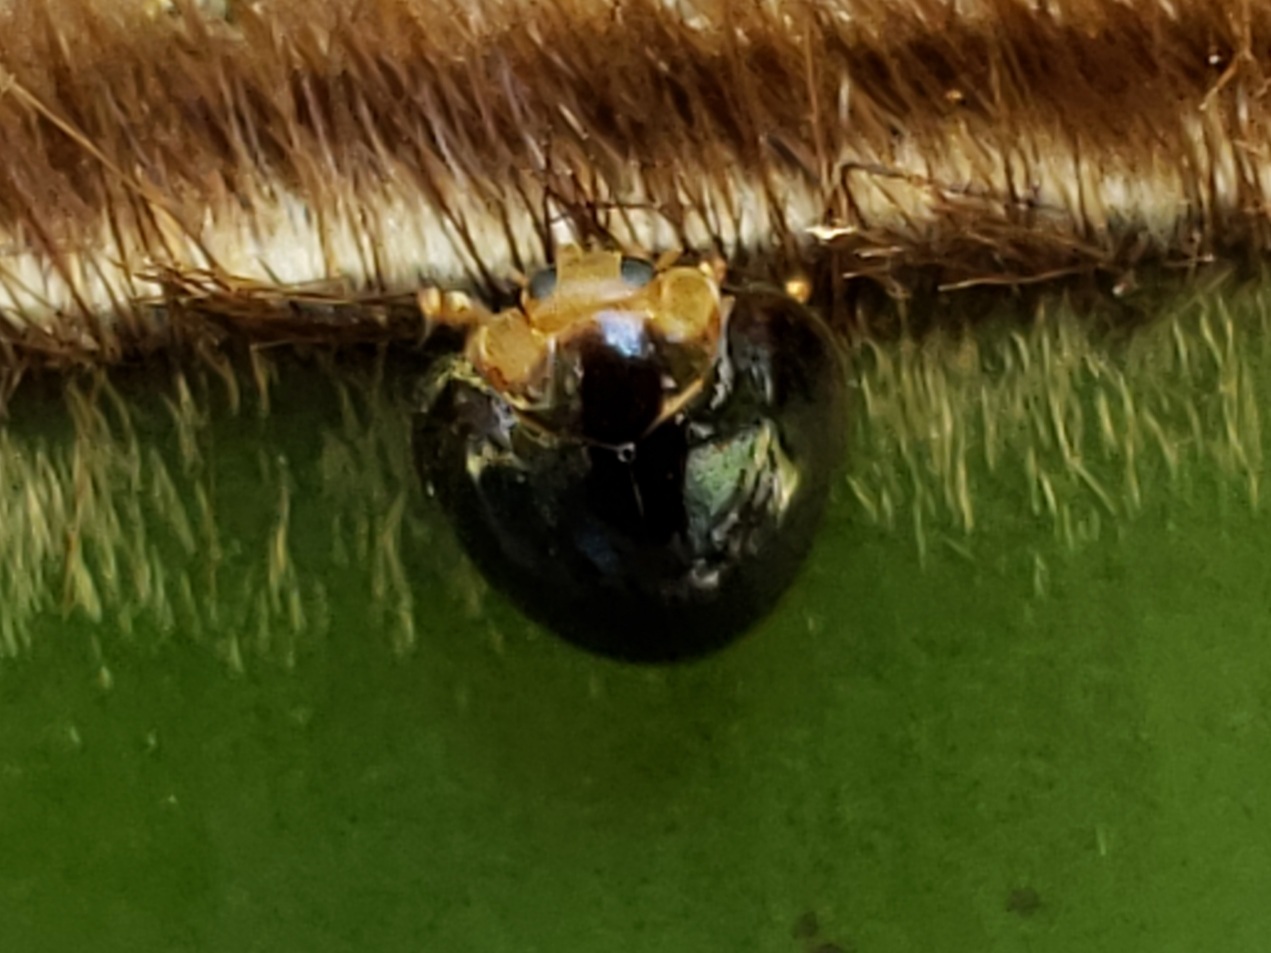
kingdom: Animalia
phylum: Arthropoda
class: Insecta
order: Coleoptera
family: Coccinellidae
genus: Chilocorus
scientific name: Chilocorus nigritus
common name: Ladybird beetle
